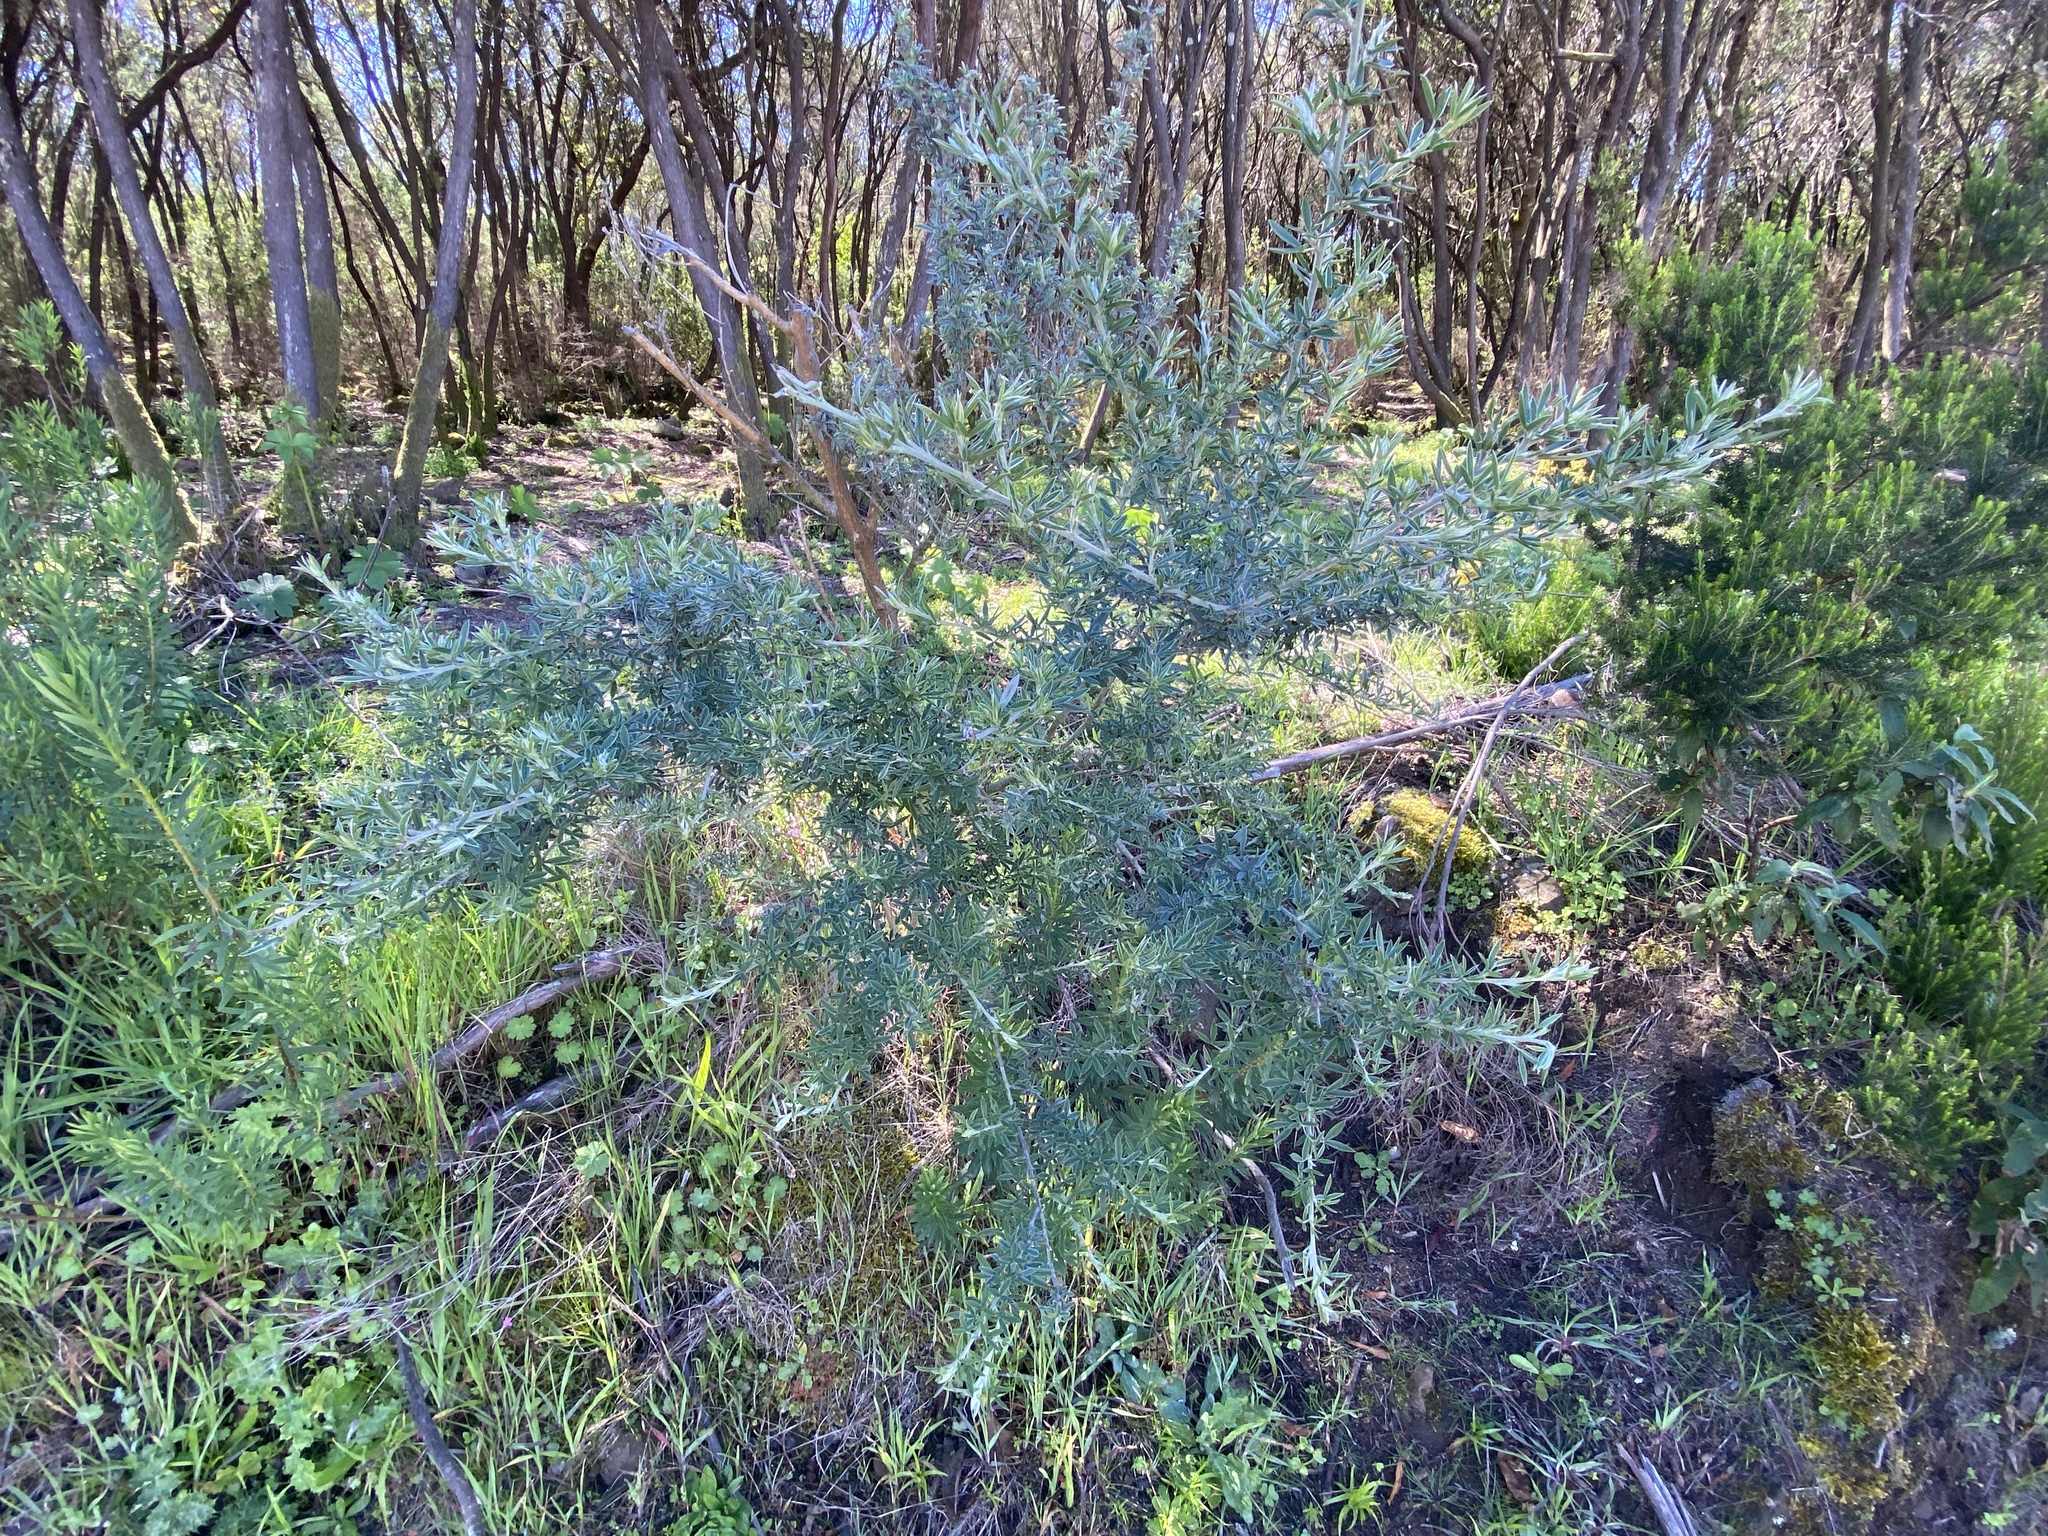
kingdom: Plantae
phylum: Tracheophyta
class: Magnoliopsida
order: Fabales
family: Fabaceae
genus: Chamaecytisus
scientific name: Chamaecytisus prolifer
